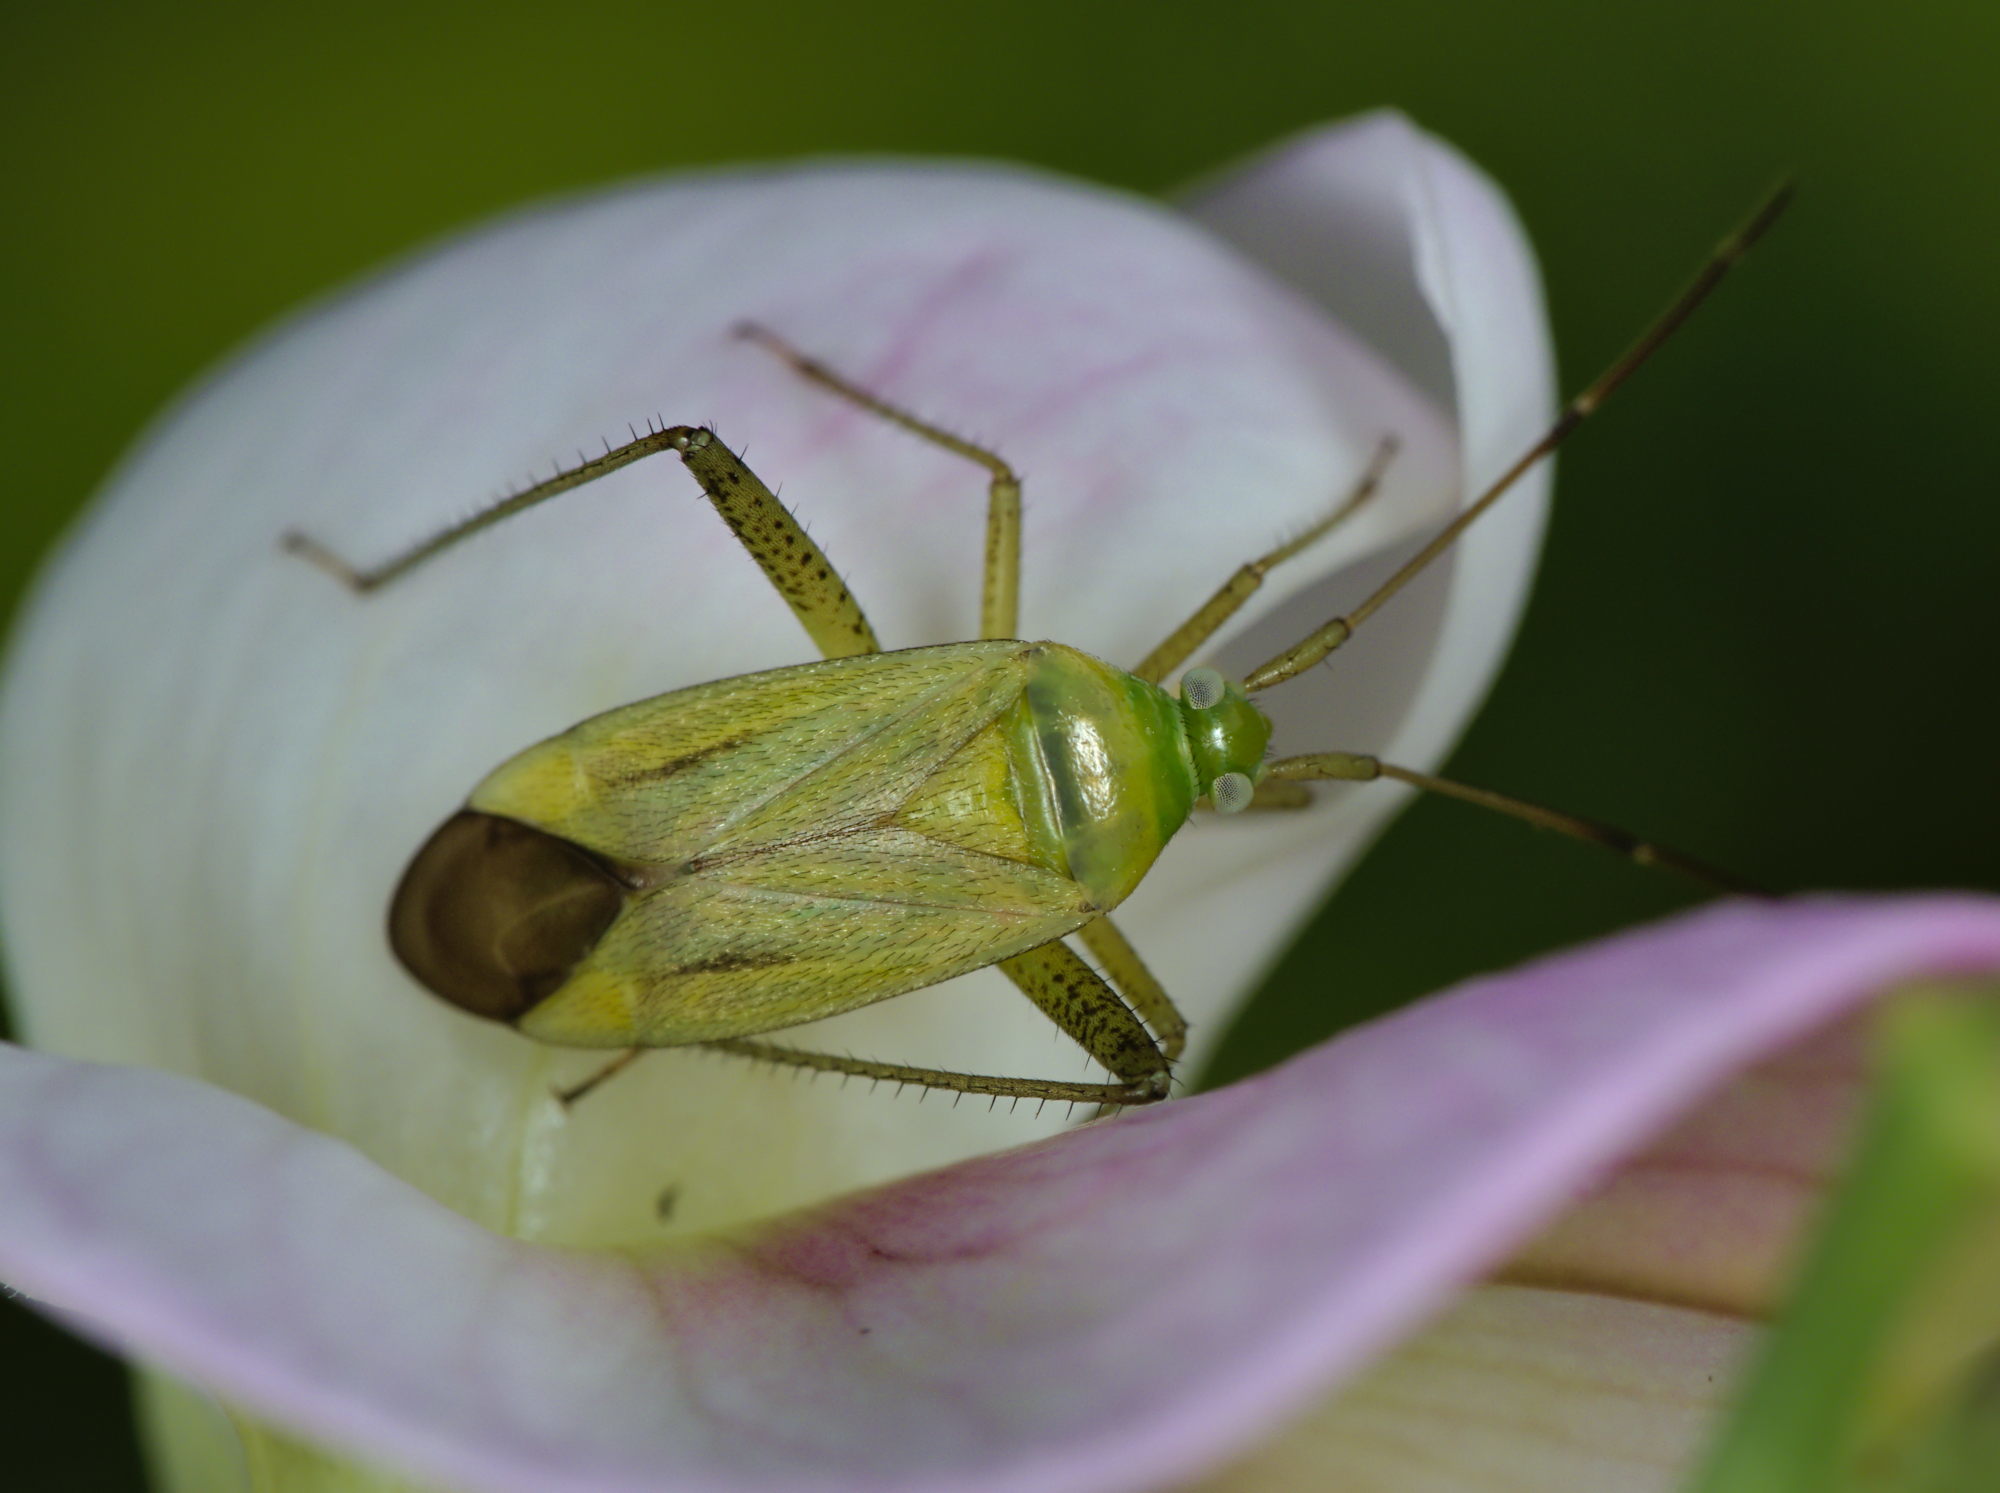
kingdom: Animalia
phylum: Arthropoda
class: Insecta
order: Hemiptera
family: Miridae
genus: Adelphocoris
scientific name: Adelphocoris quadripunctatus
